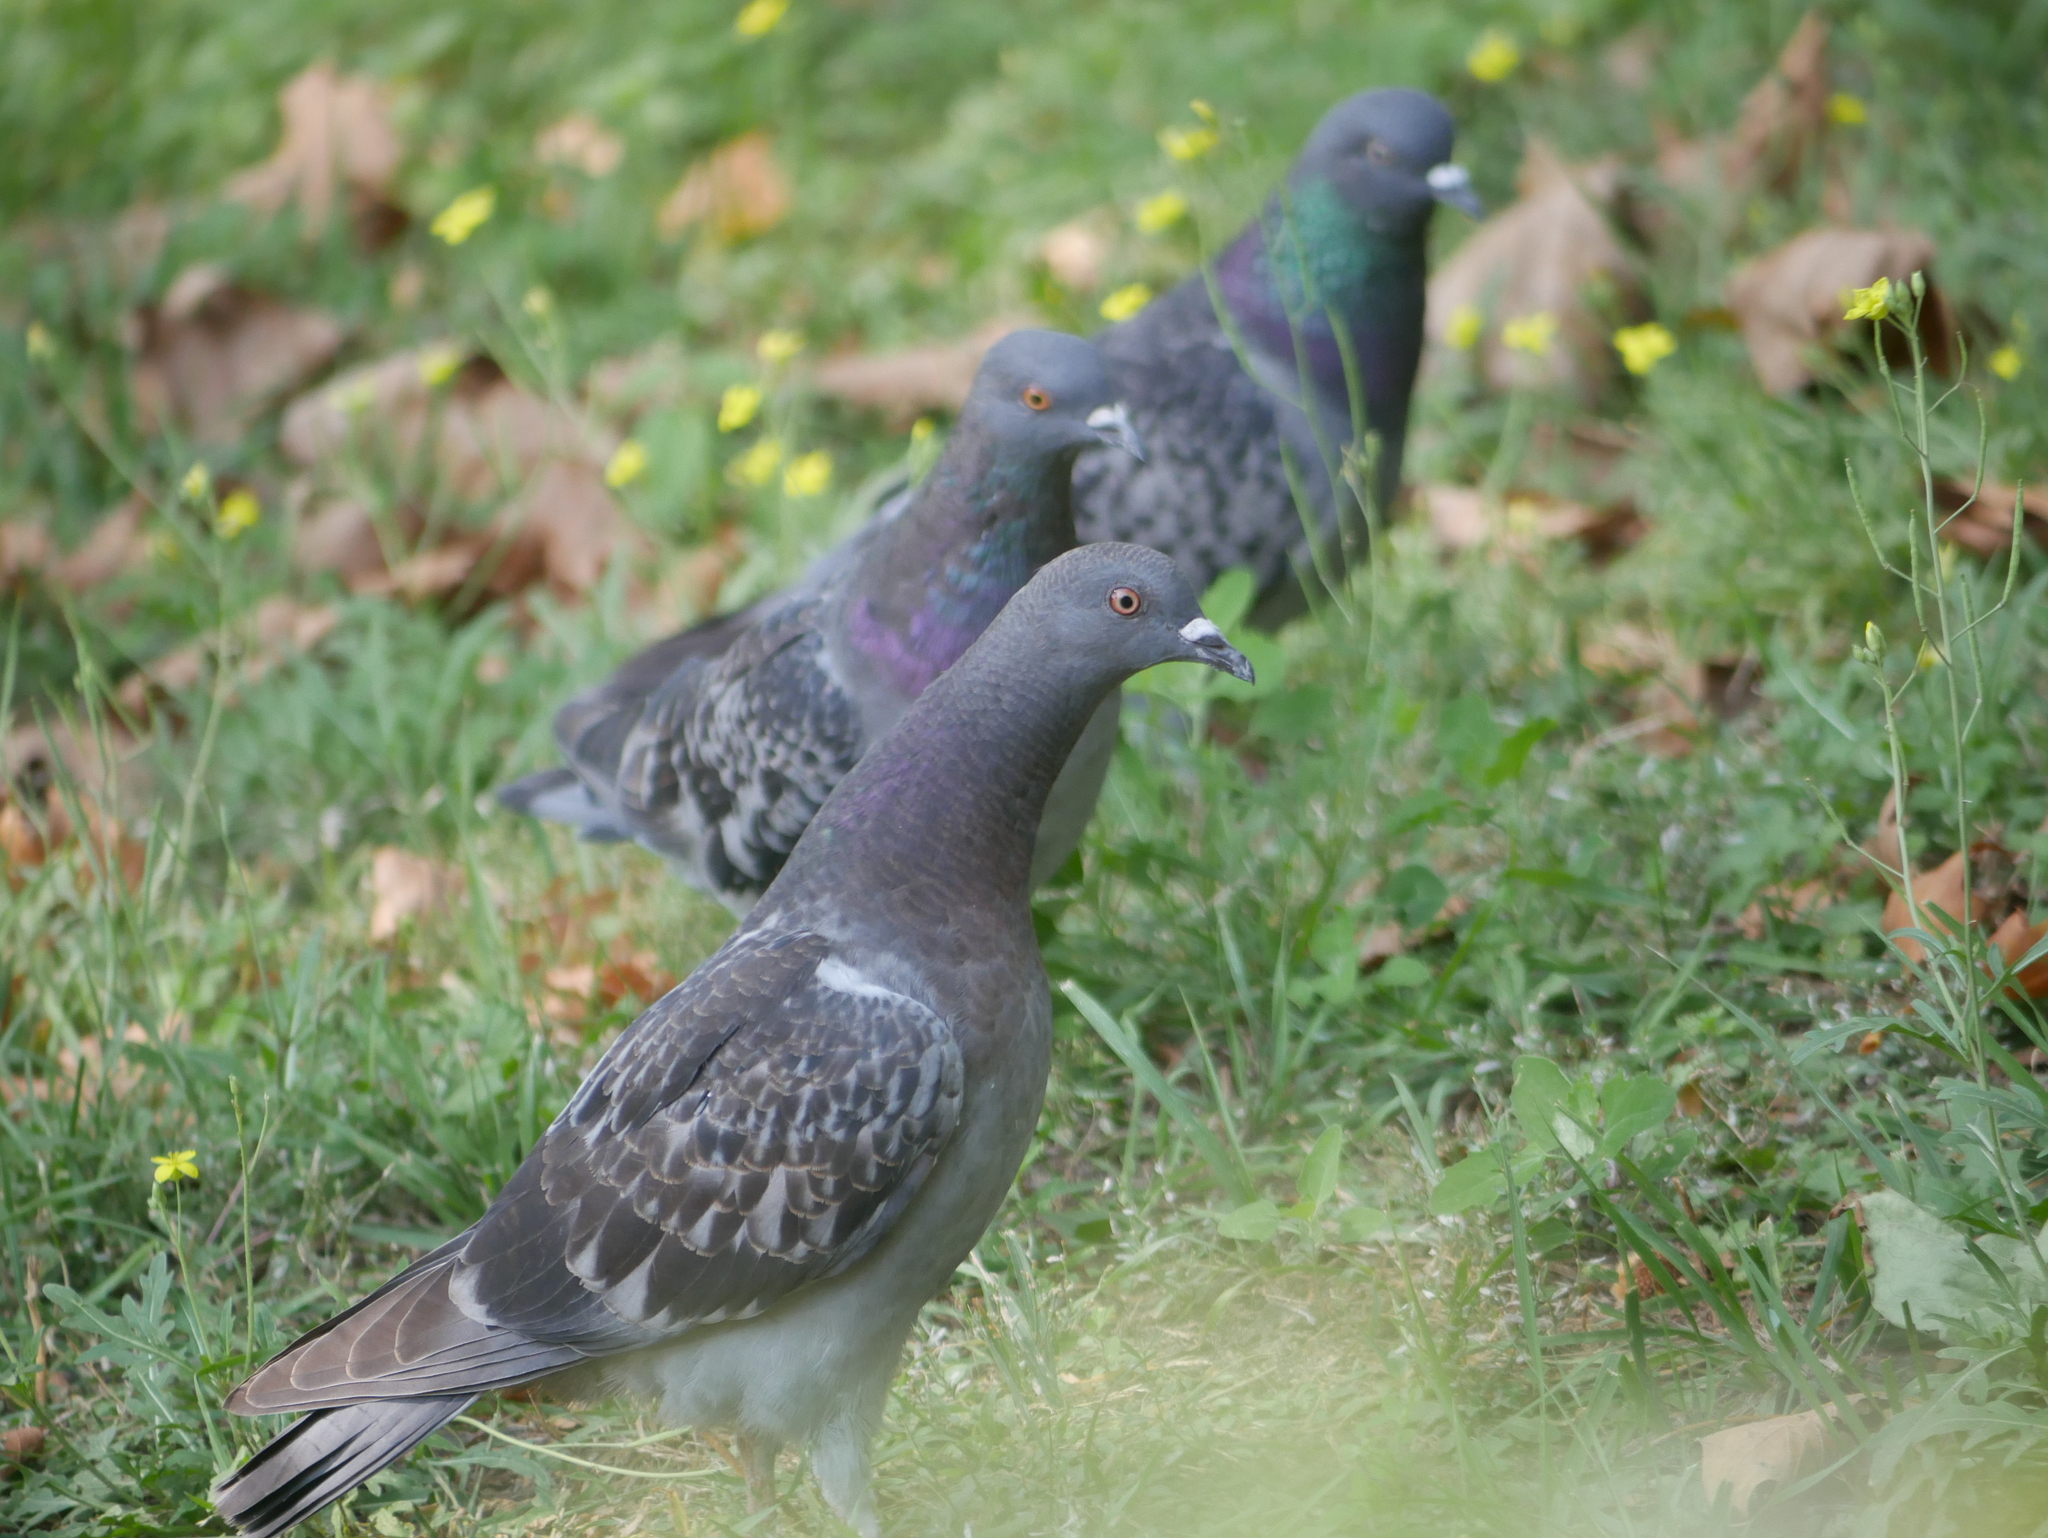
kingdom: Animalia
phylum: Chordata
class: Aves
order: Columbiformes
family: Columbidae
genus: Columba
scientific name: Columba livia
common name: Rock pigeon
